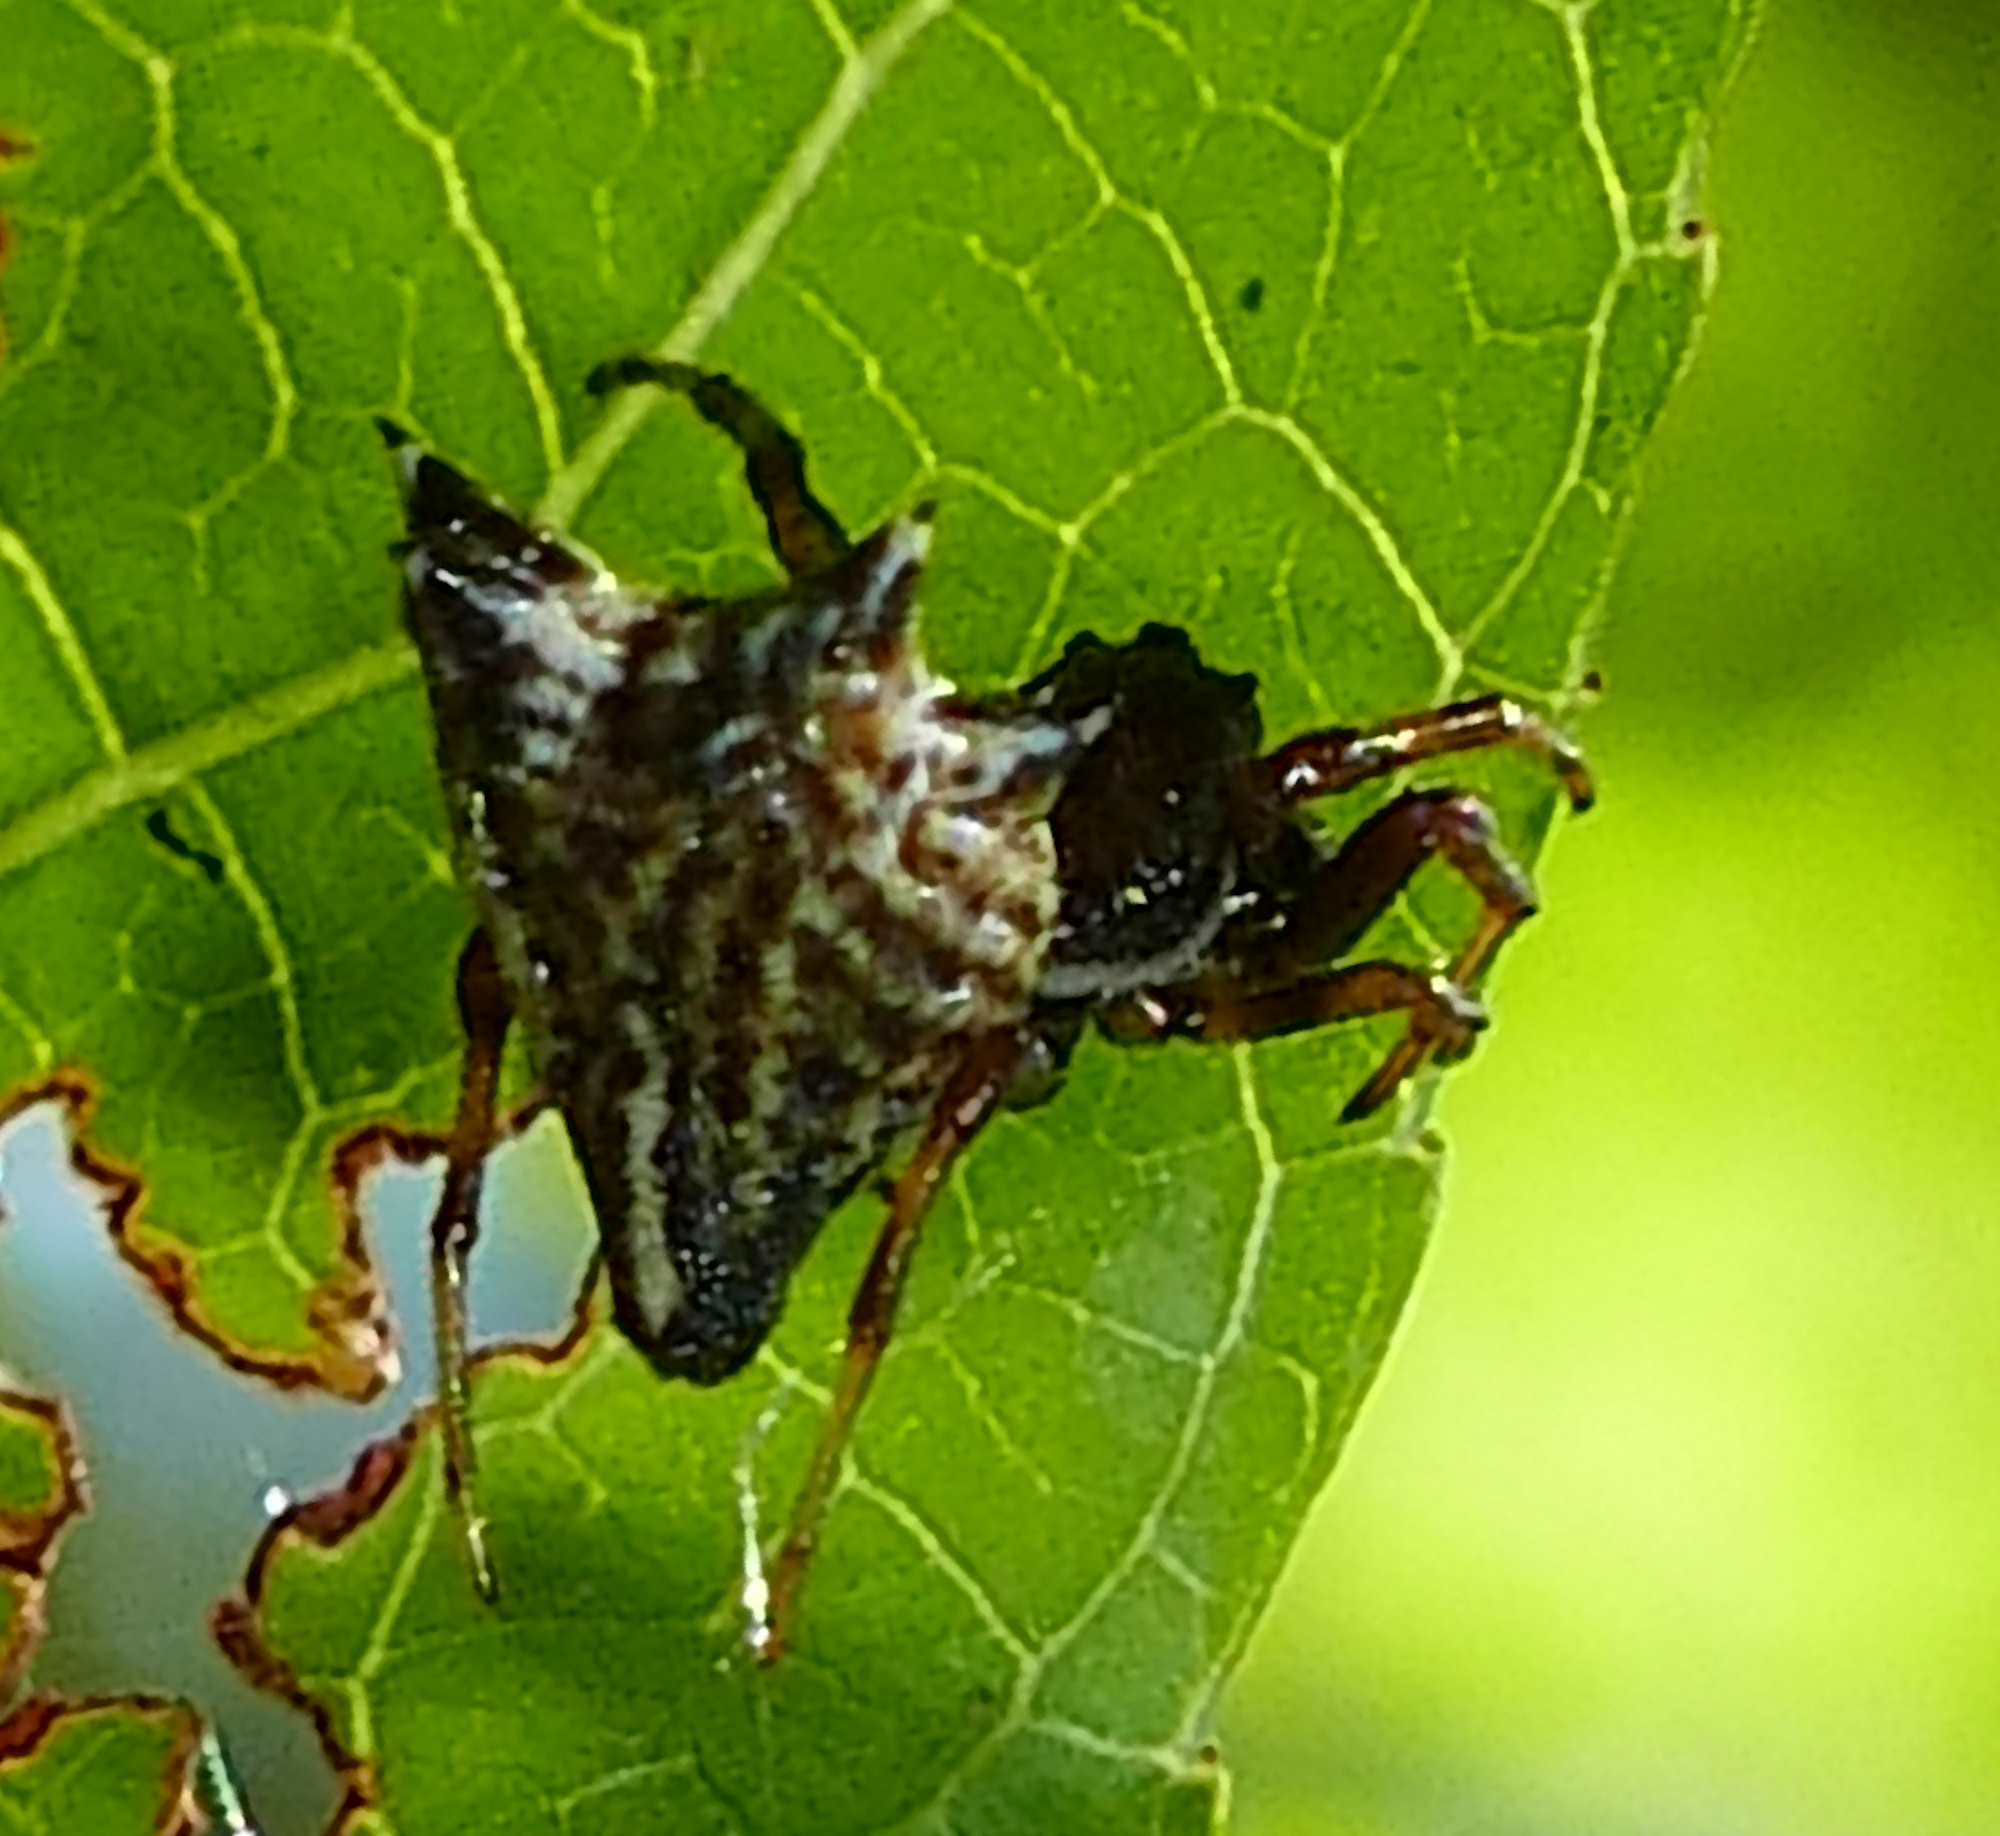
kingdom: Animalia
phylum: Arthropoda
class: Arachnida
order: Araneae
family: Araneidae
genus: Micrathena
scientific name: Micrathena gracilis
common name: Orb weavers
